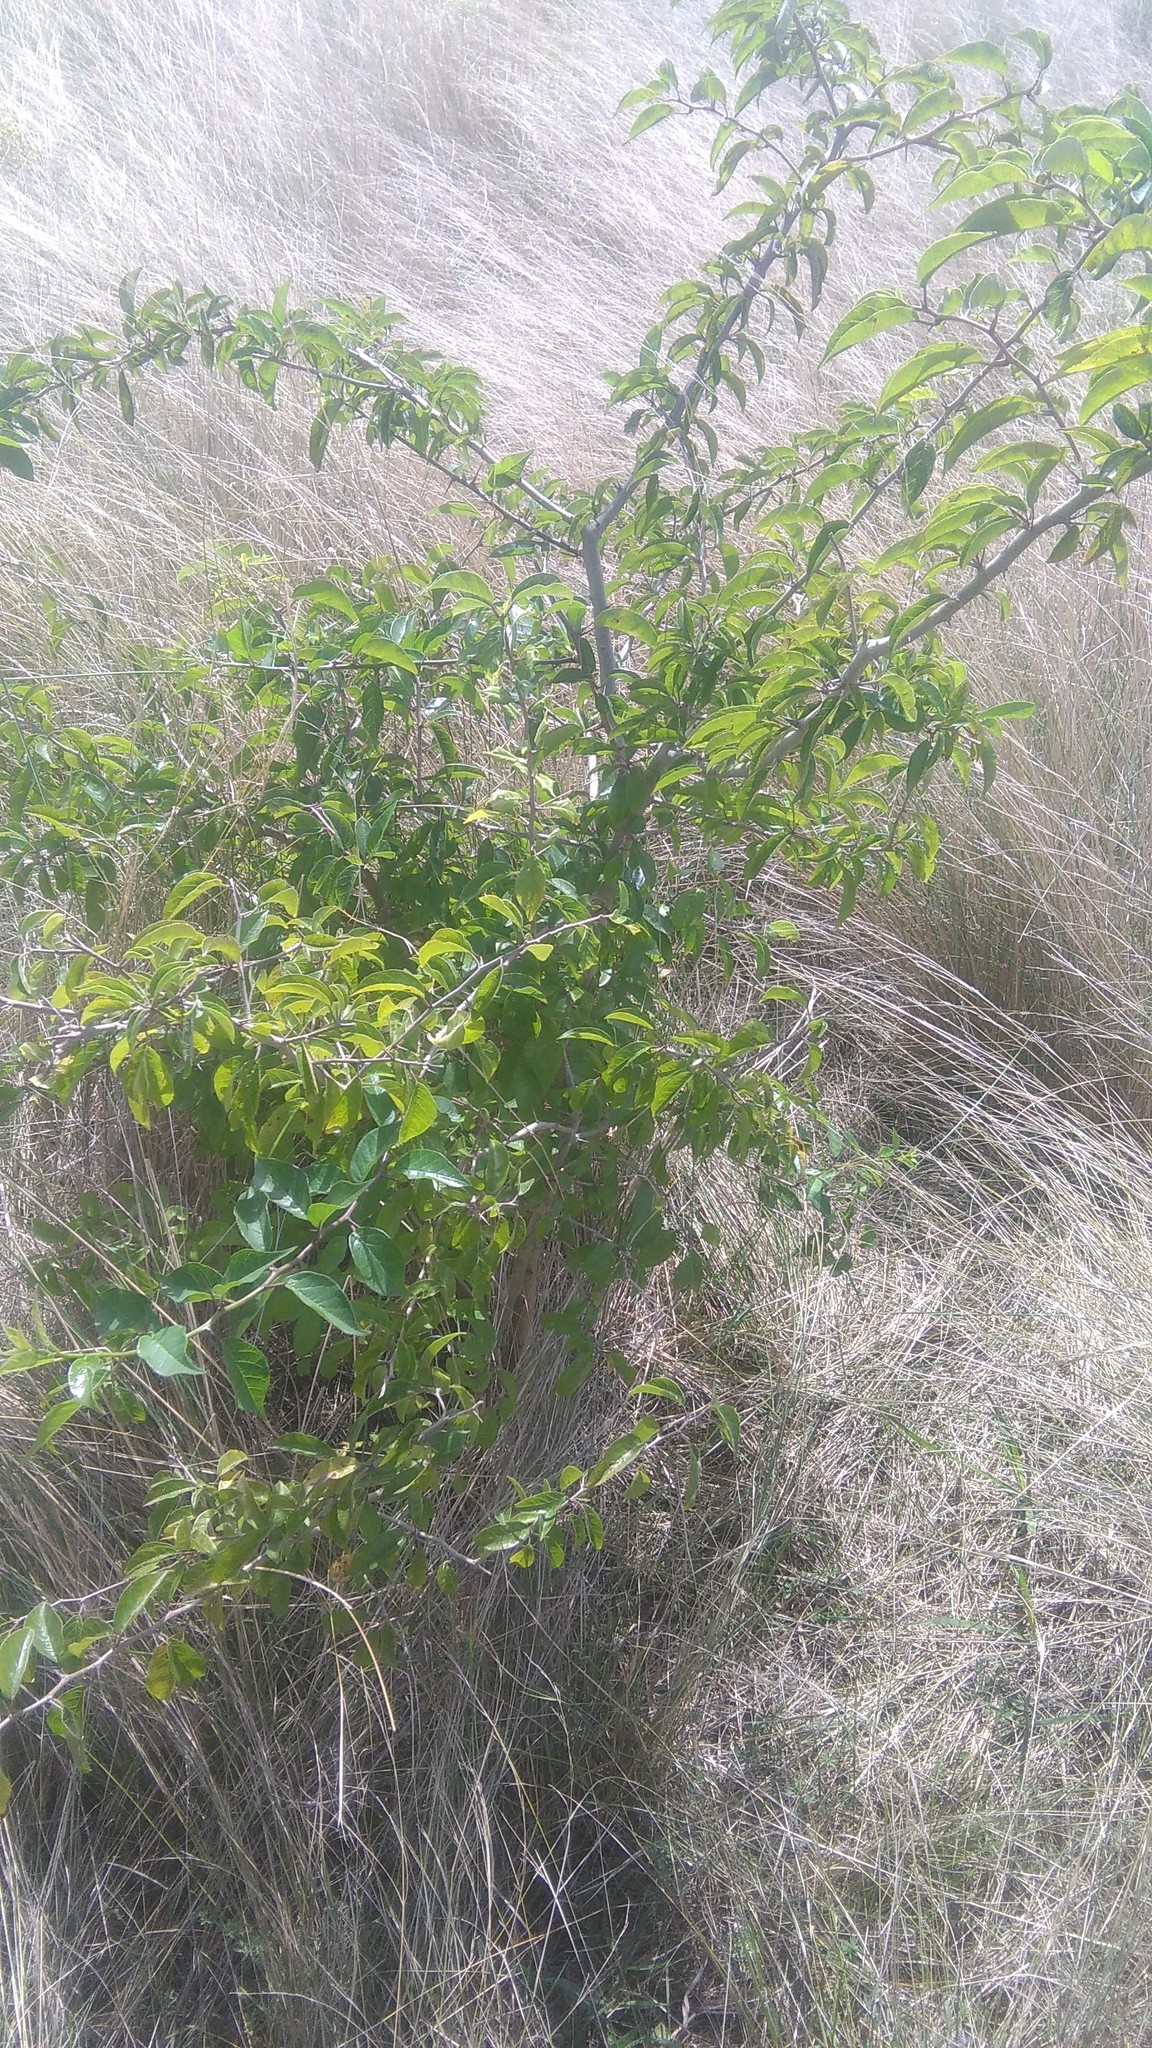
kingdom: Plantae
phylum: Tracheophyta
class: Magnoliopsida
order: Rosales
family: Cannabaceae
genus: Celtis
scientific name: Celtis tala
